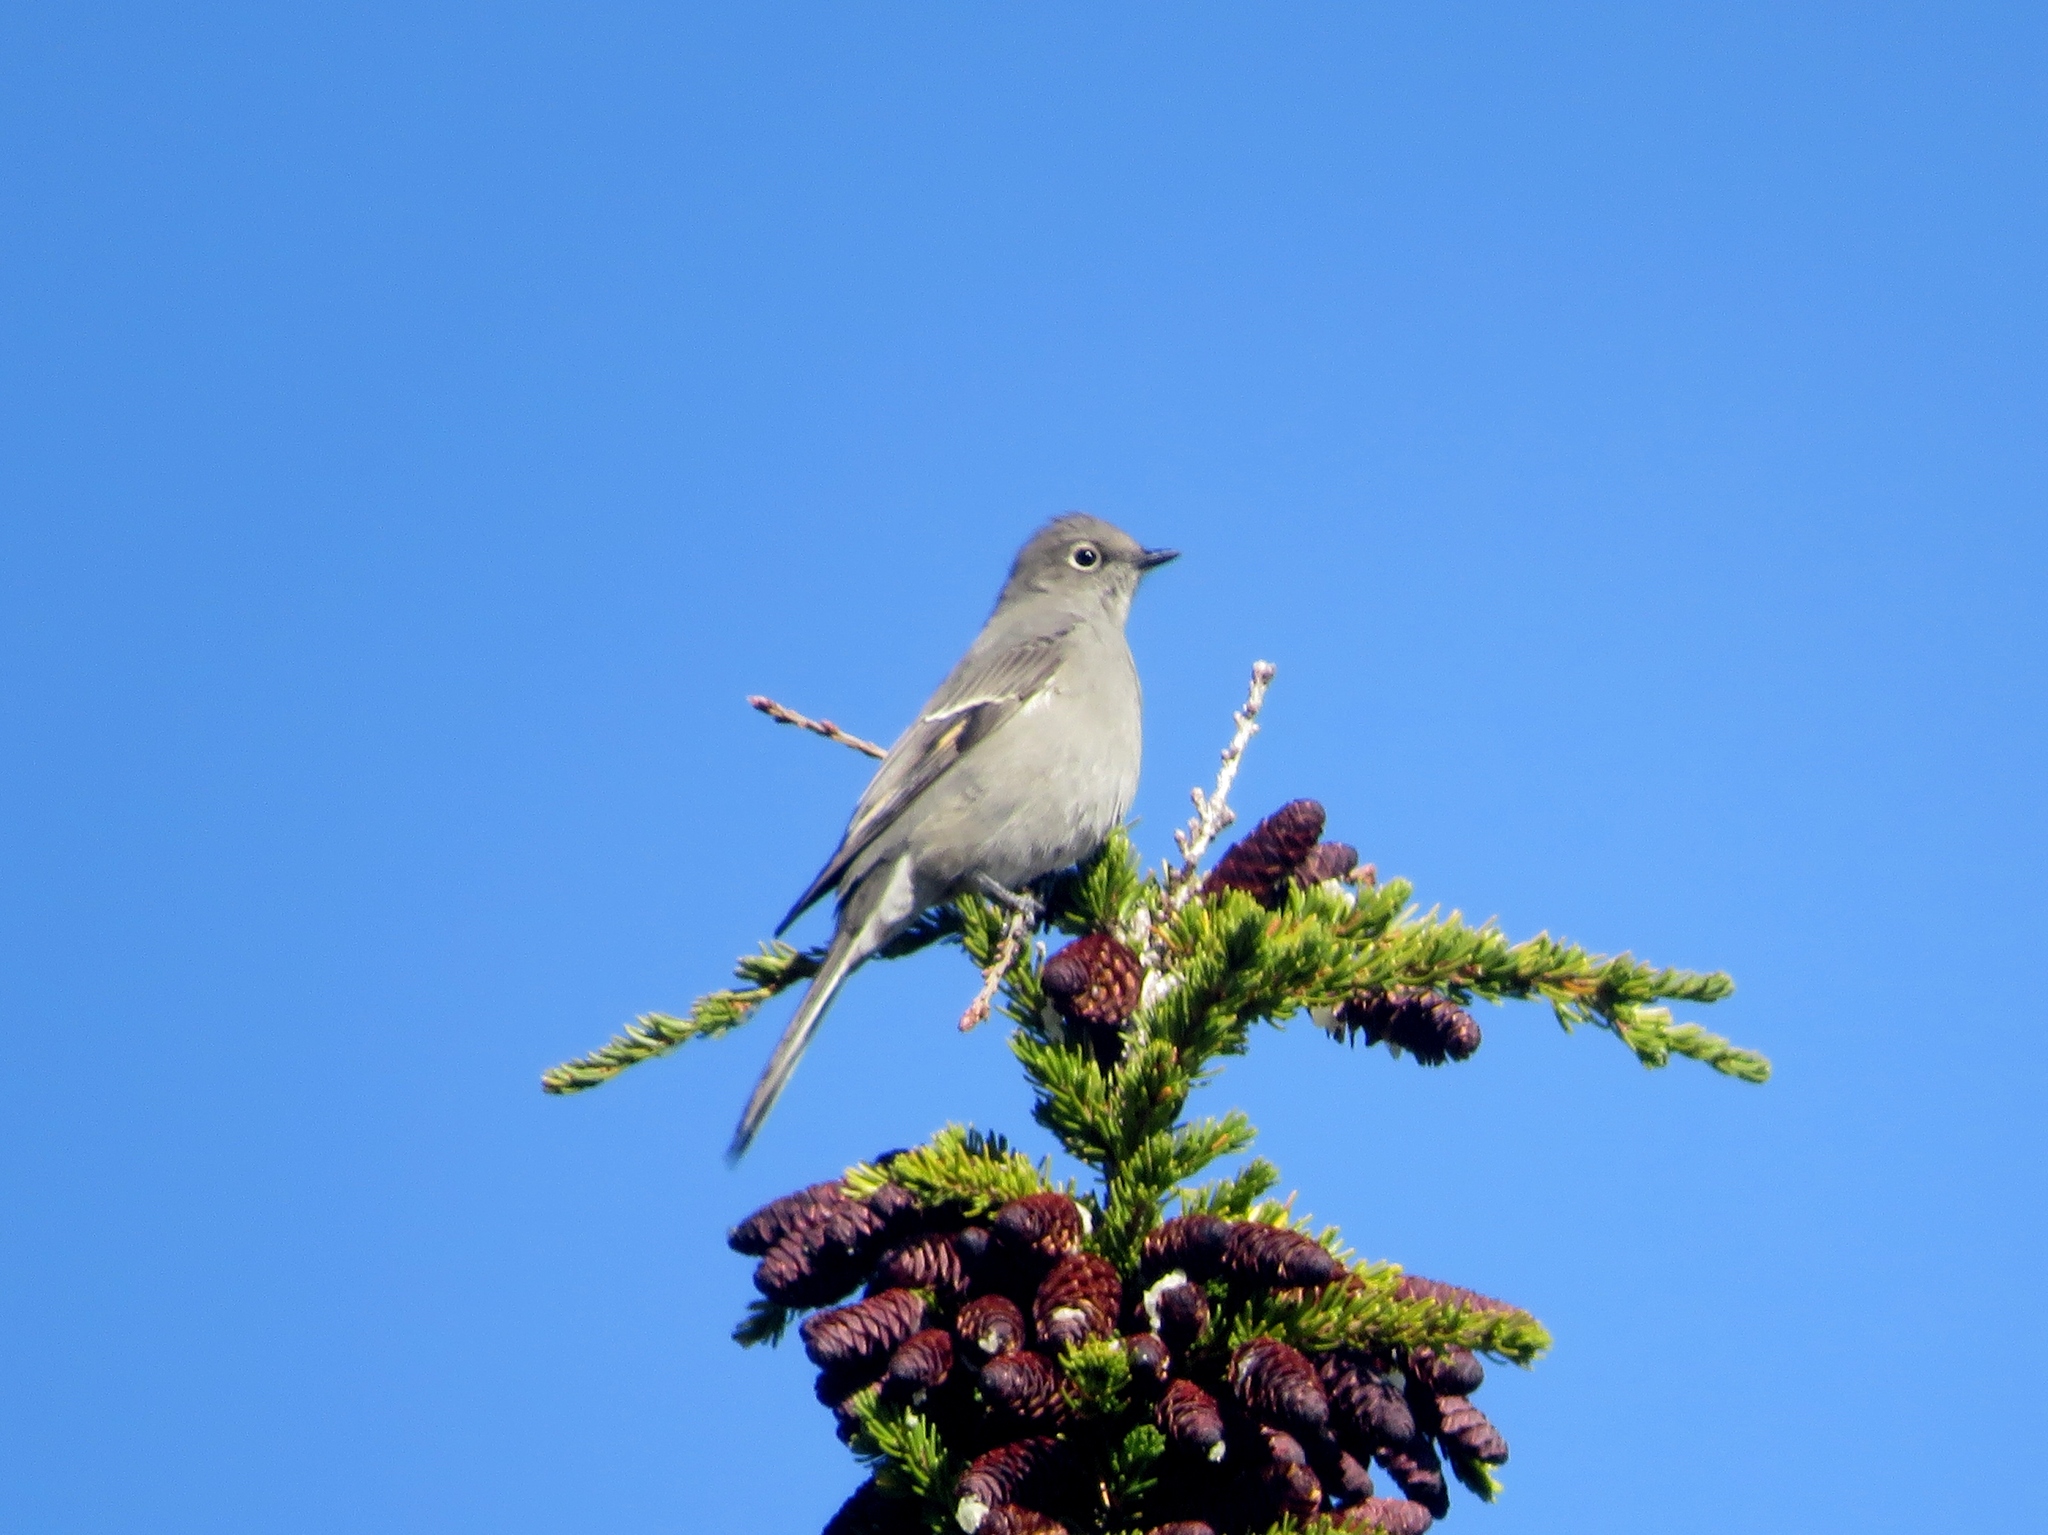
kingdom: Animalia
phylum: Chordata
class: Aves
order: Passeriformes
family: Turdidae
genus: Myadestes
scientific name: Myadestes townsendi
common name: Townsend's solitaire
